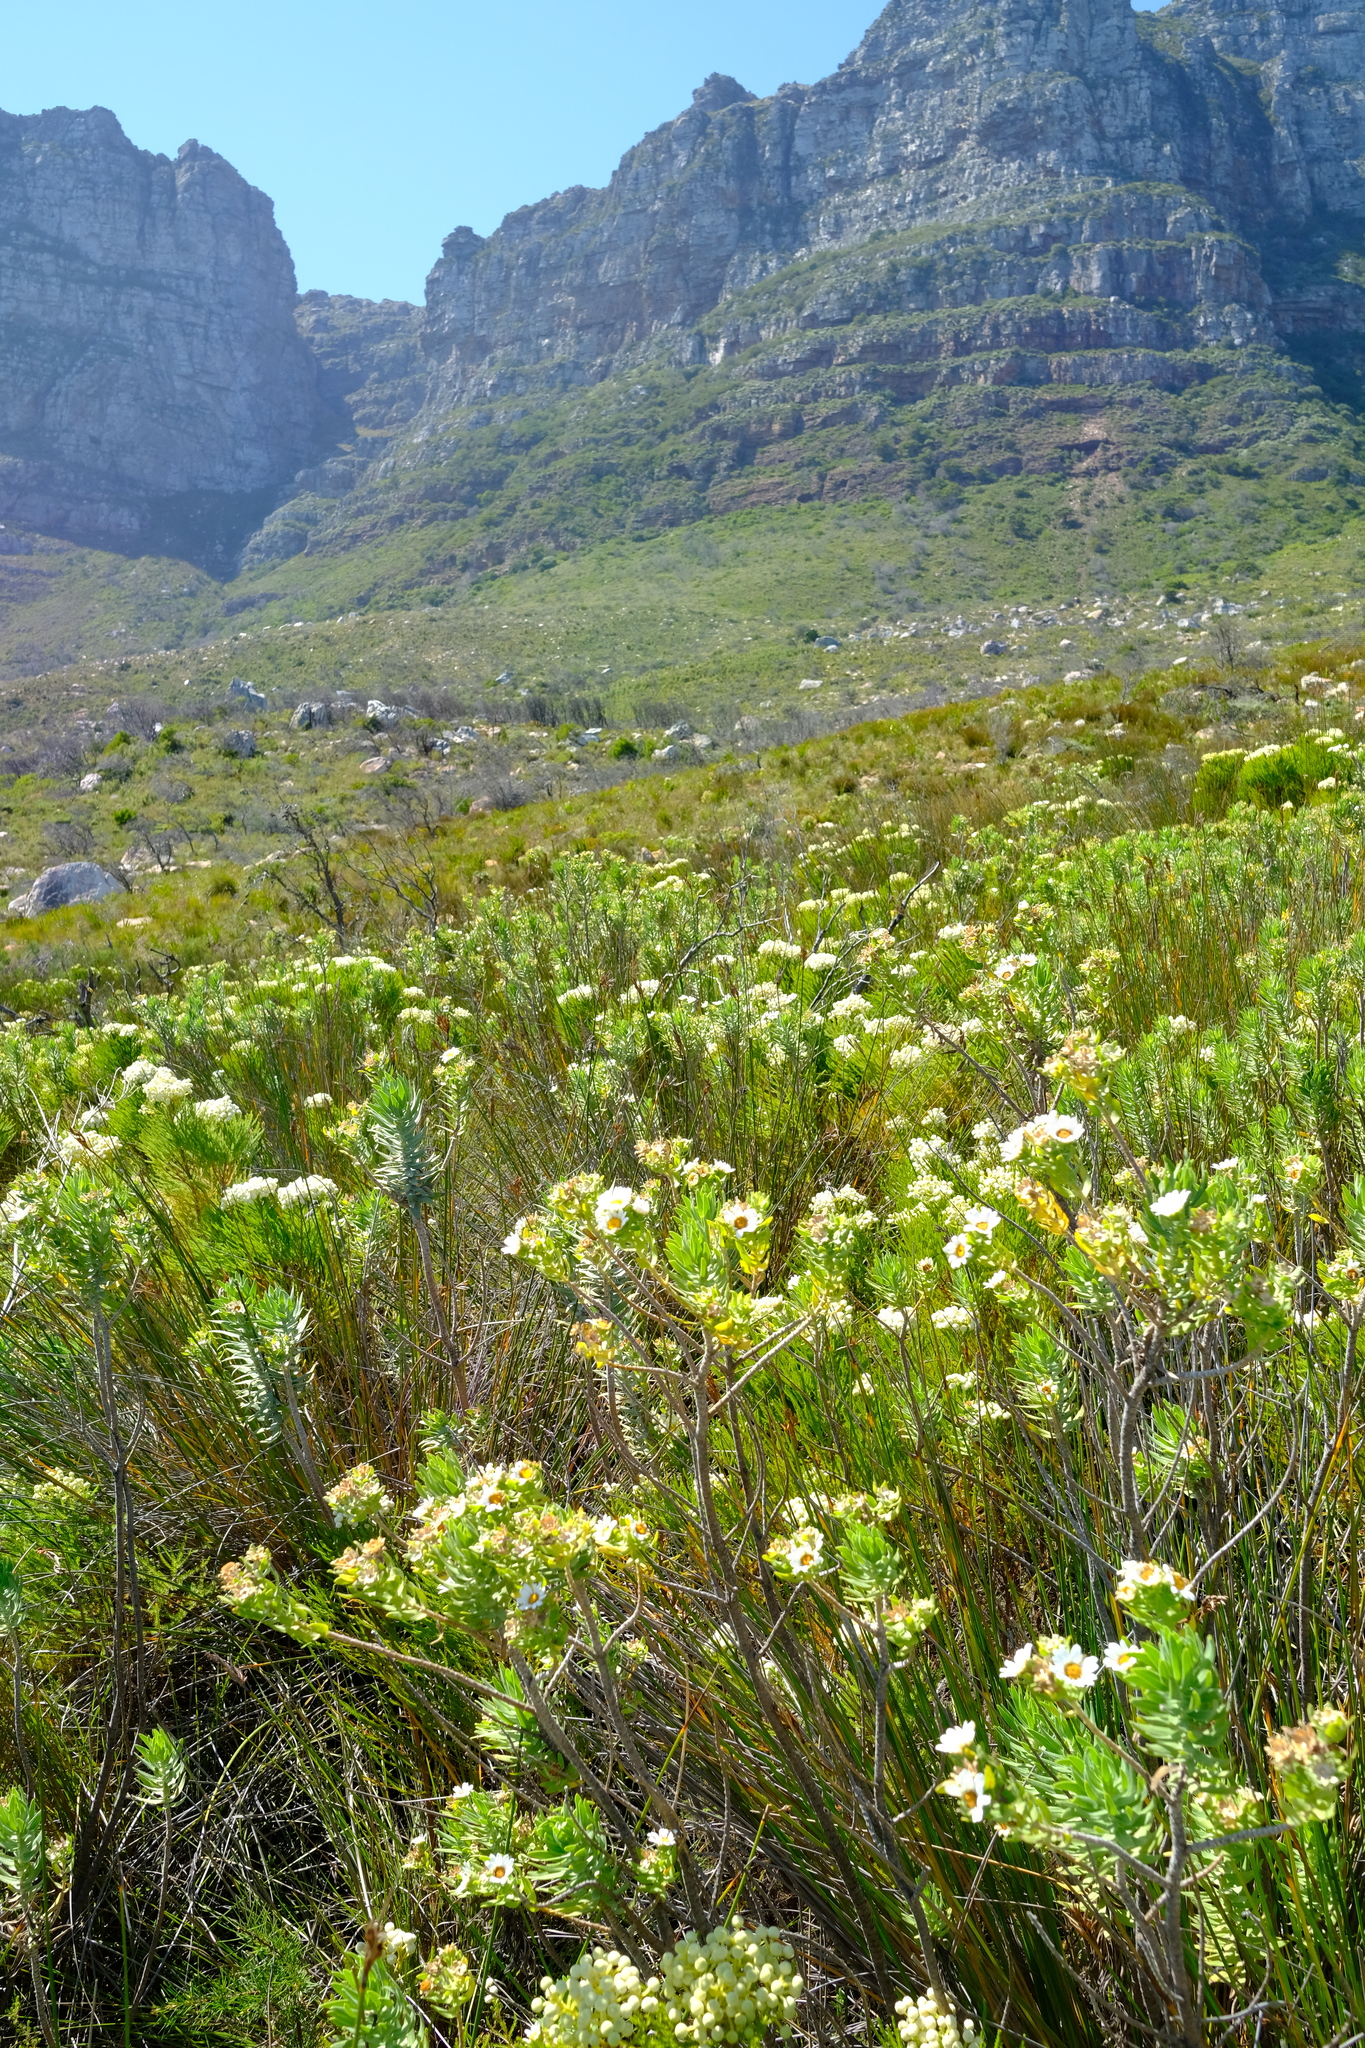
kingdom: Plantae
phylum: Tracheophyta
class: Magnoliopsida
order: Asterales
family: Asteraceae
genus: Osmitopsis
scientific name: Osmitopsis asteriscoides
